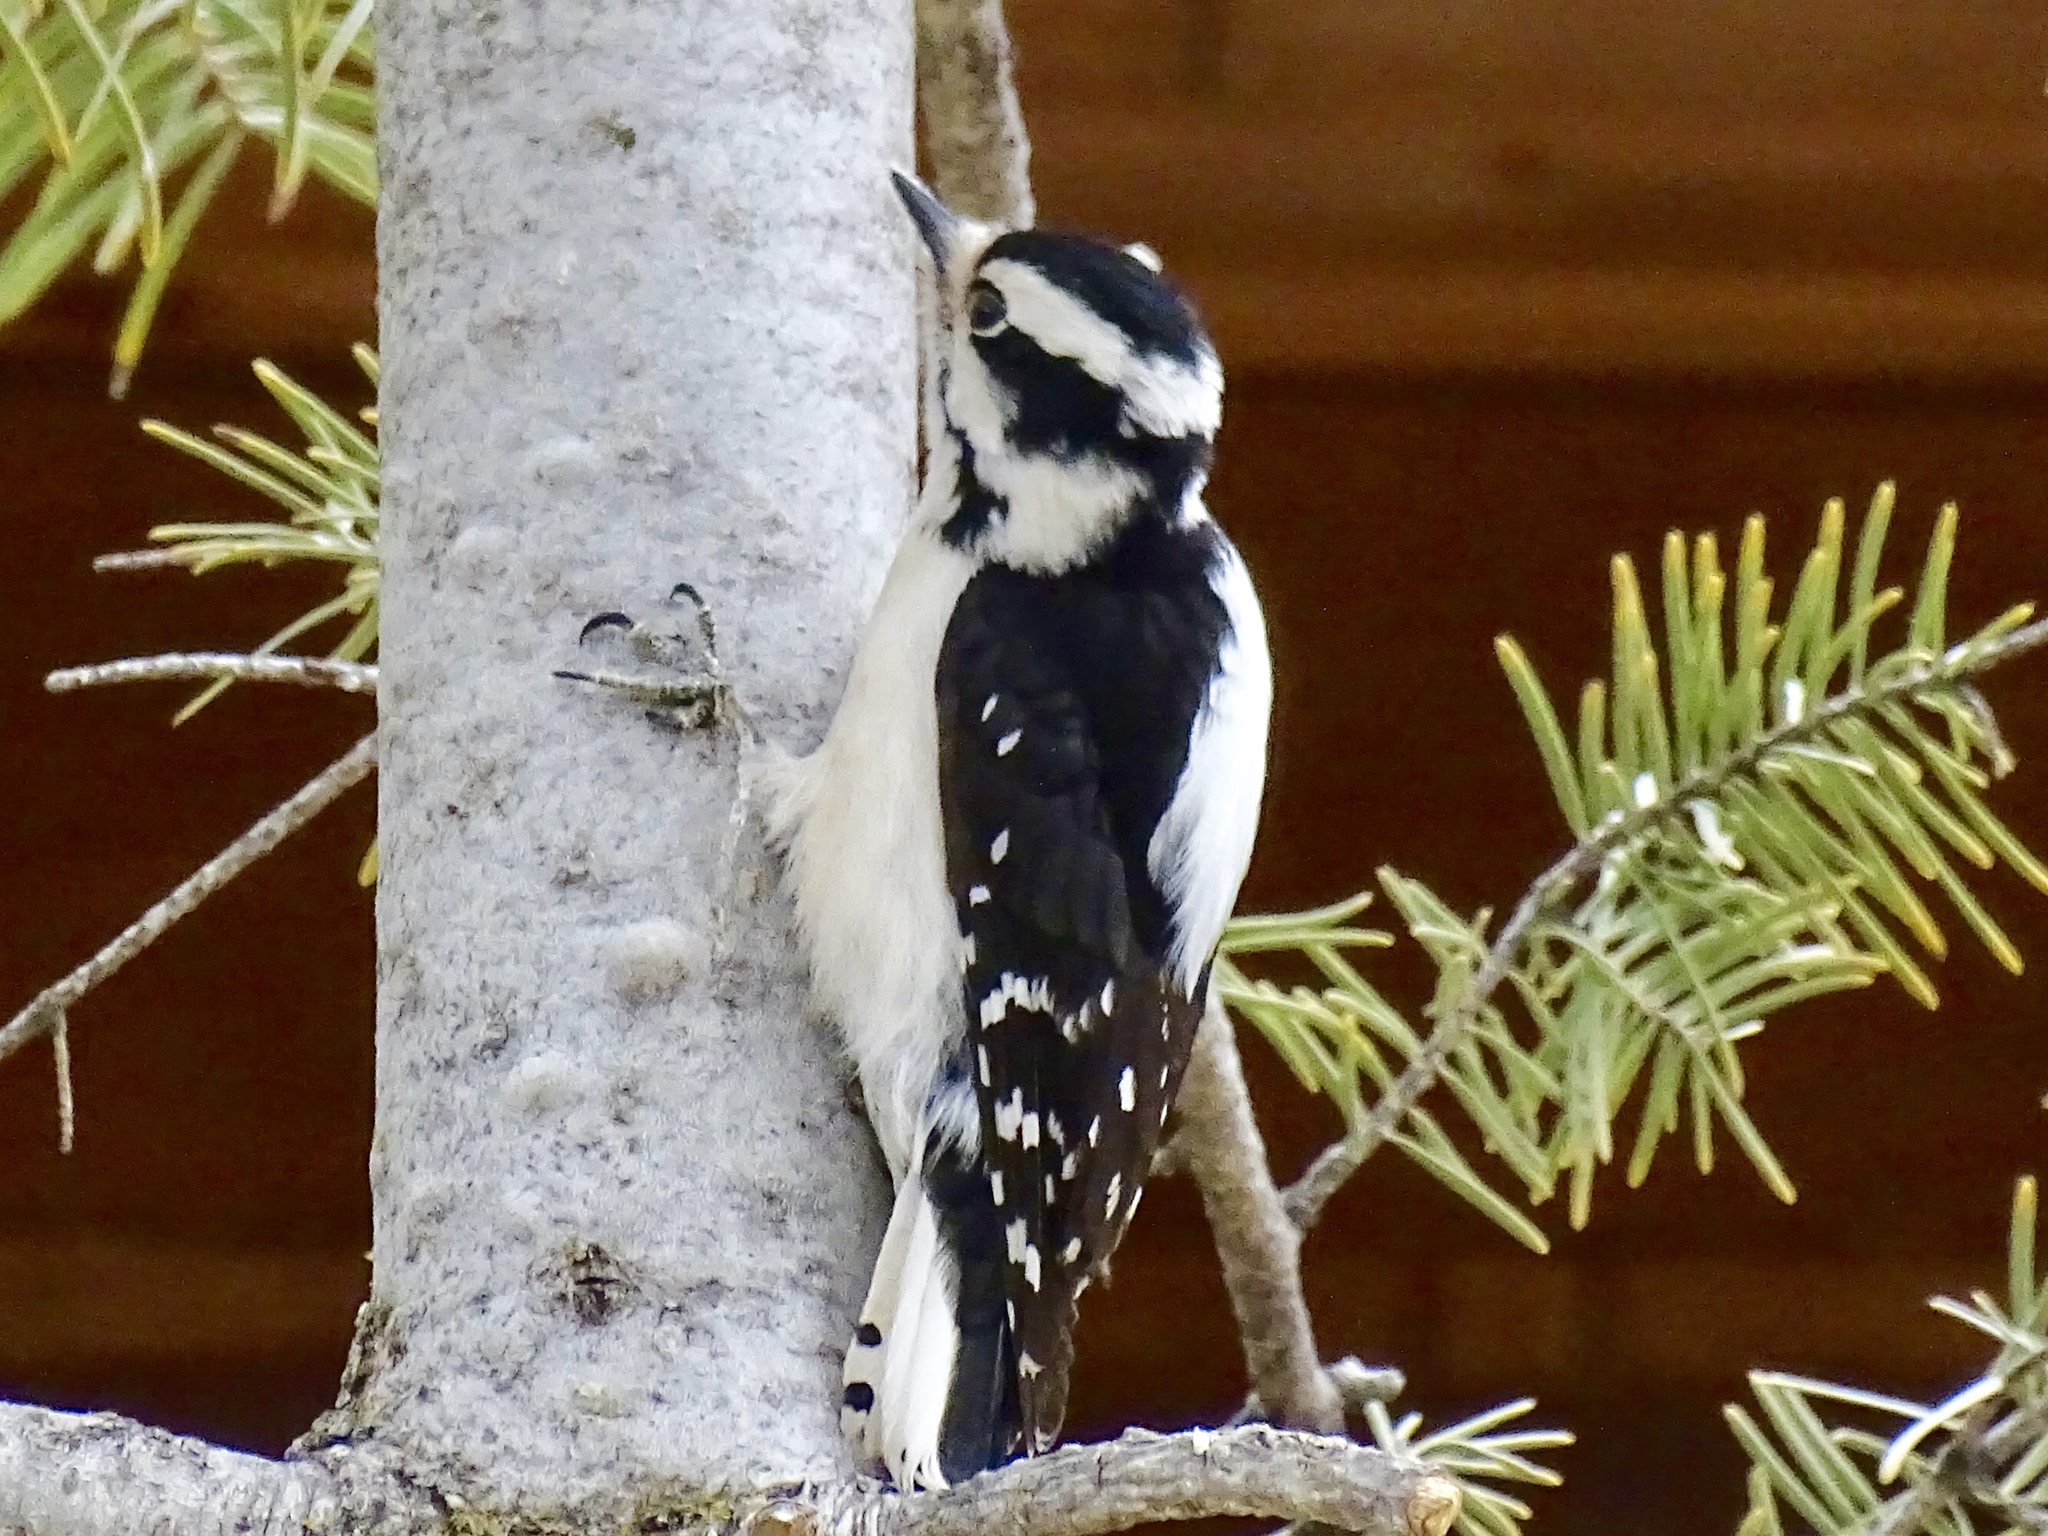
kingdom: Animalia
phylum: Chordata
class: Aves
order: Piciformes
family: Picidae
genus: Dryobates
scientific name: Dryobates pubescens
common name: Downy woodpecker
